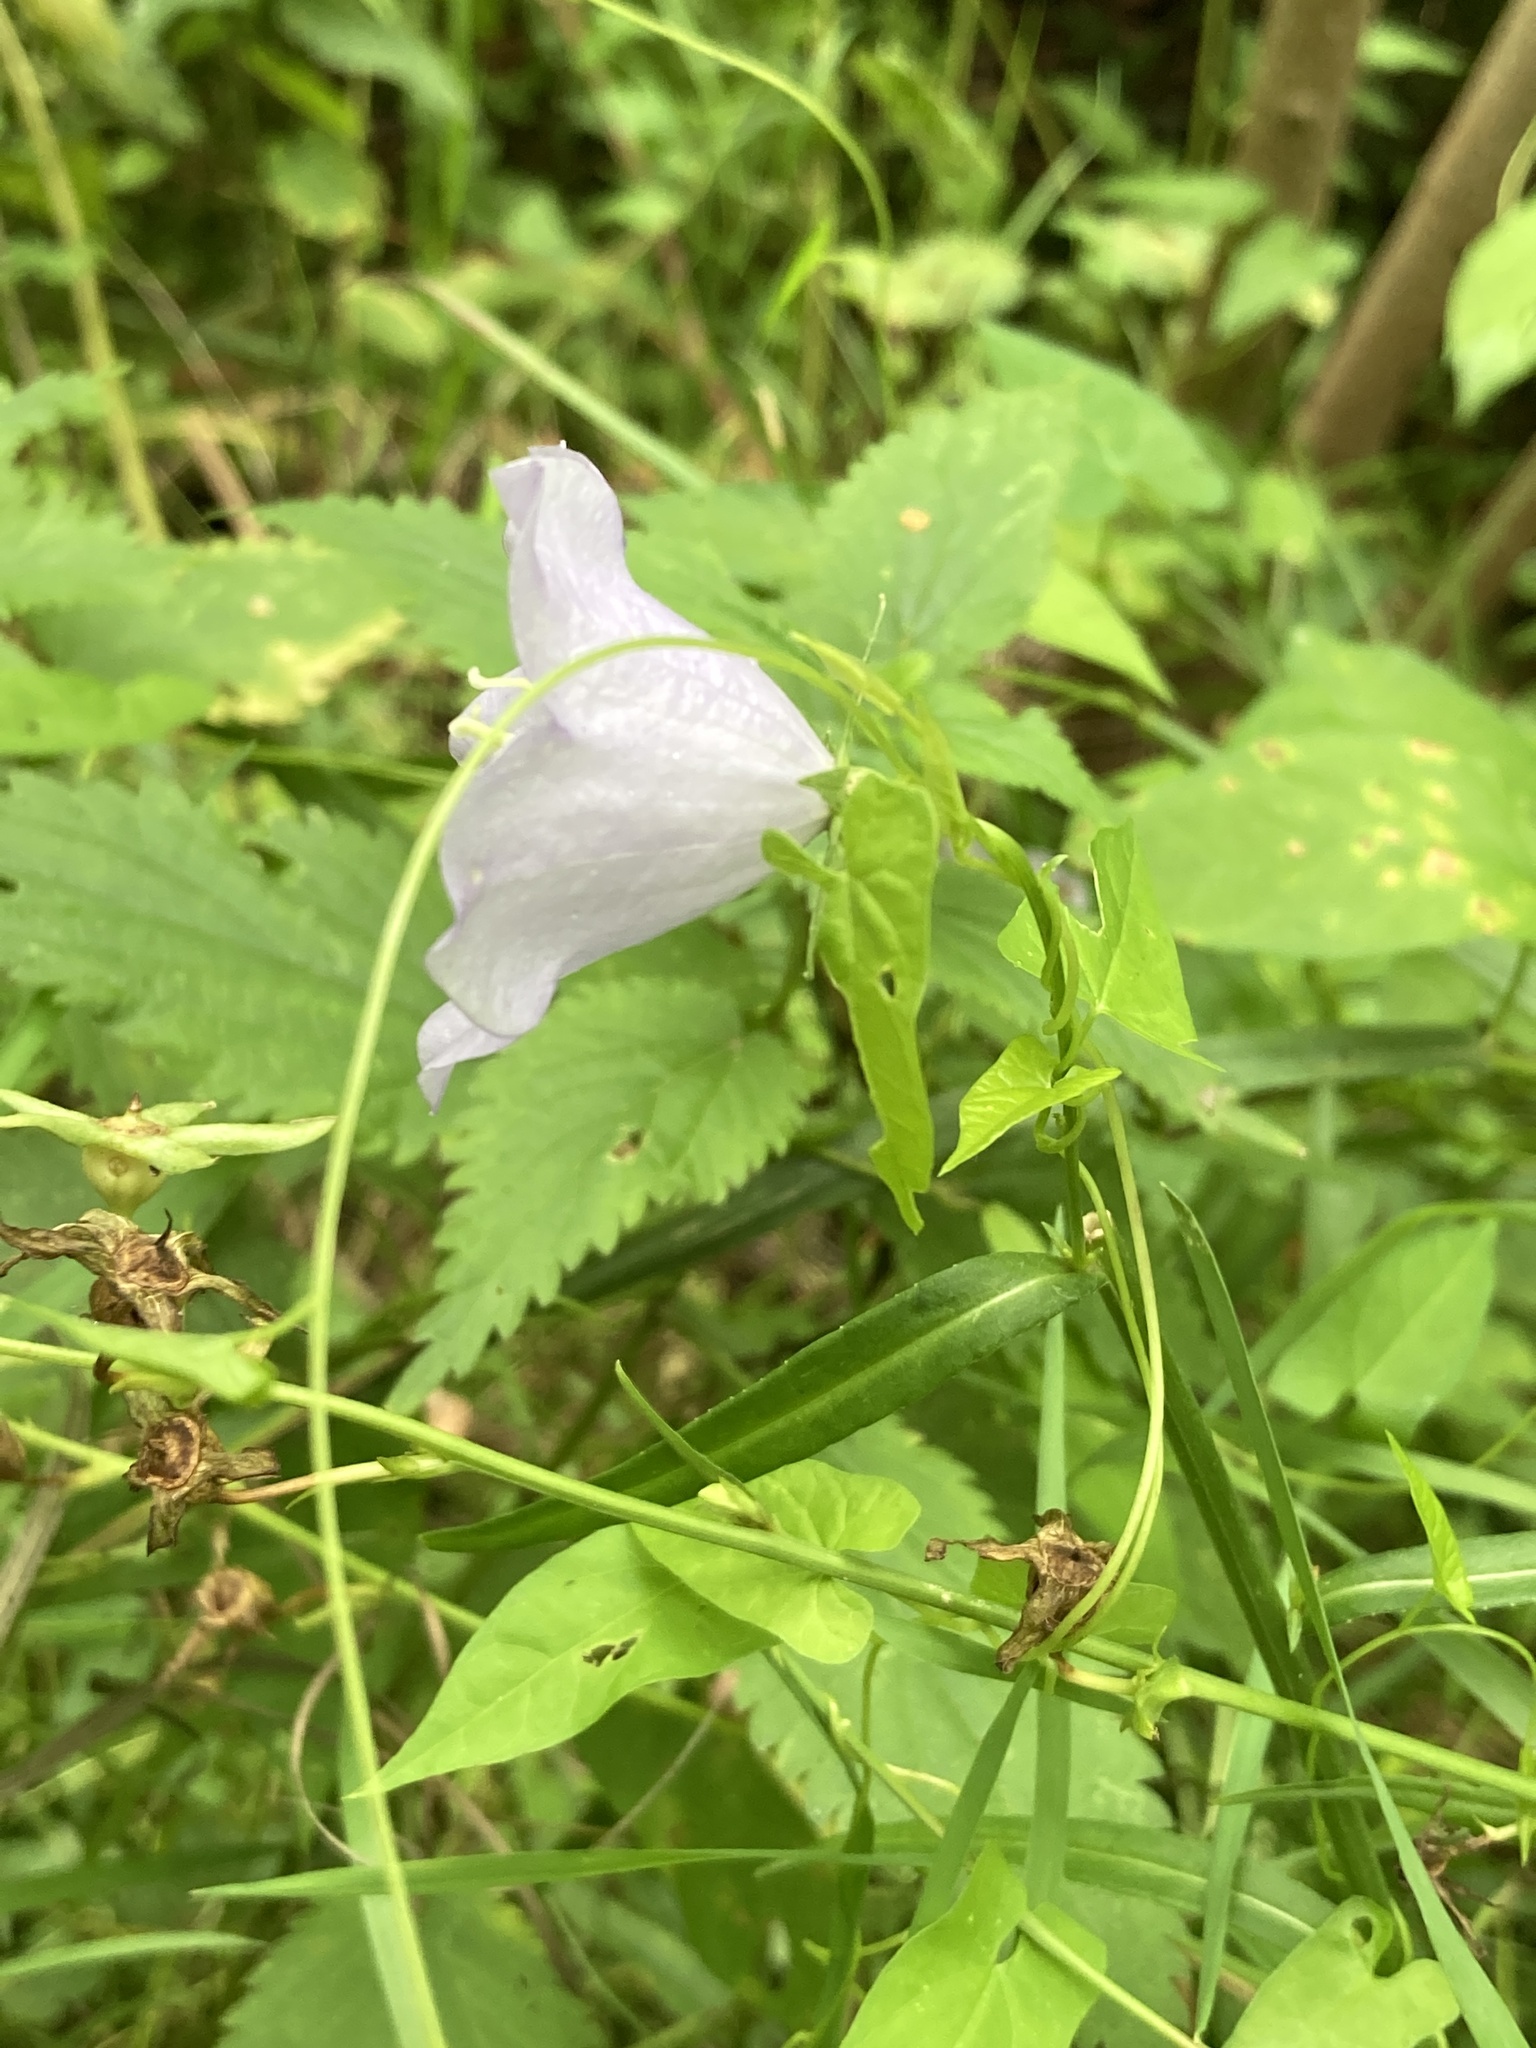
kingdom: Plantae
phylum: Tracheophyta
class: Magnoliopsida
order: Asterales
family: Campanulaceae
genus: Campanula
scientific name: Campanula persicifolia
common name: Peach-leaved bellflower
